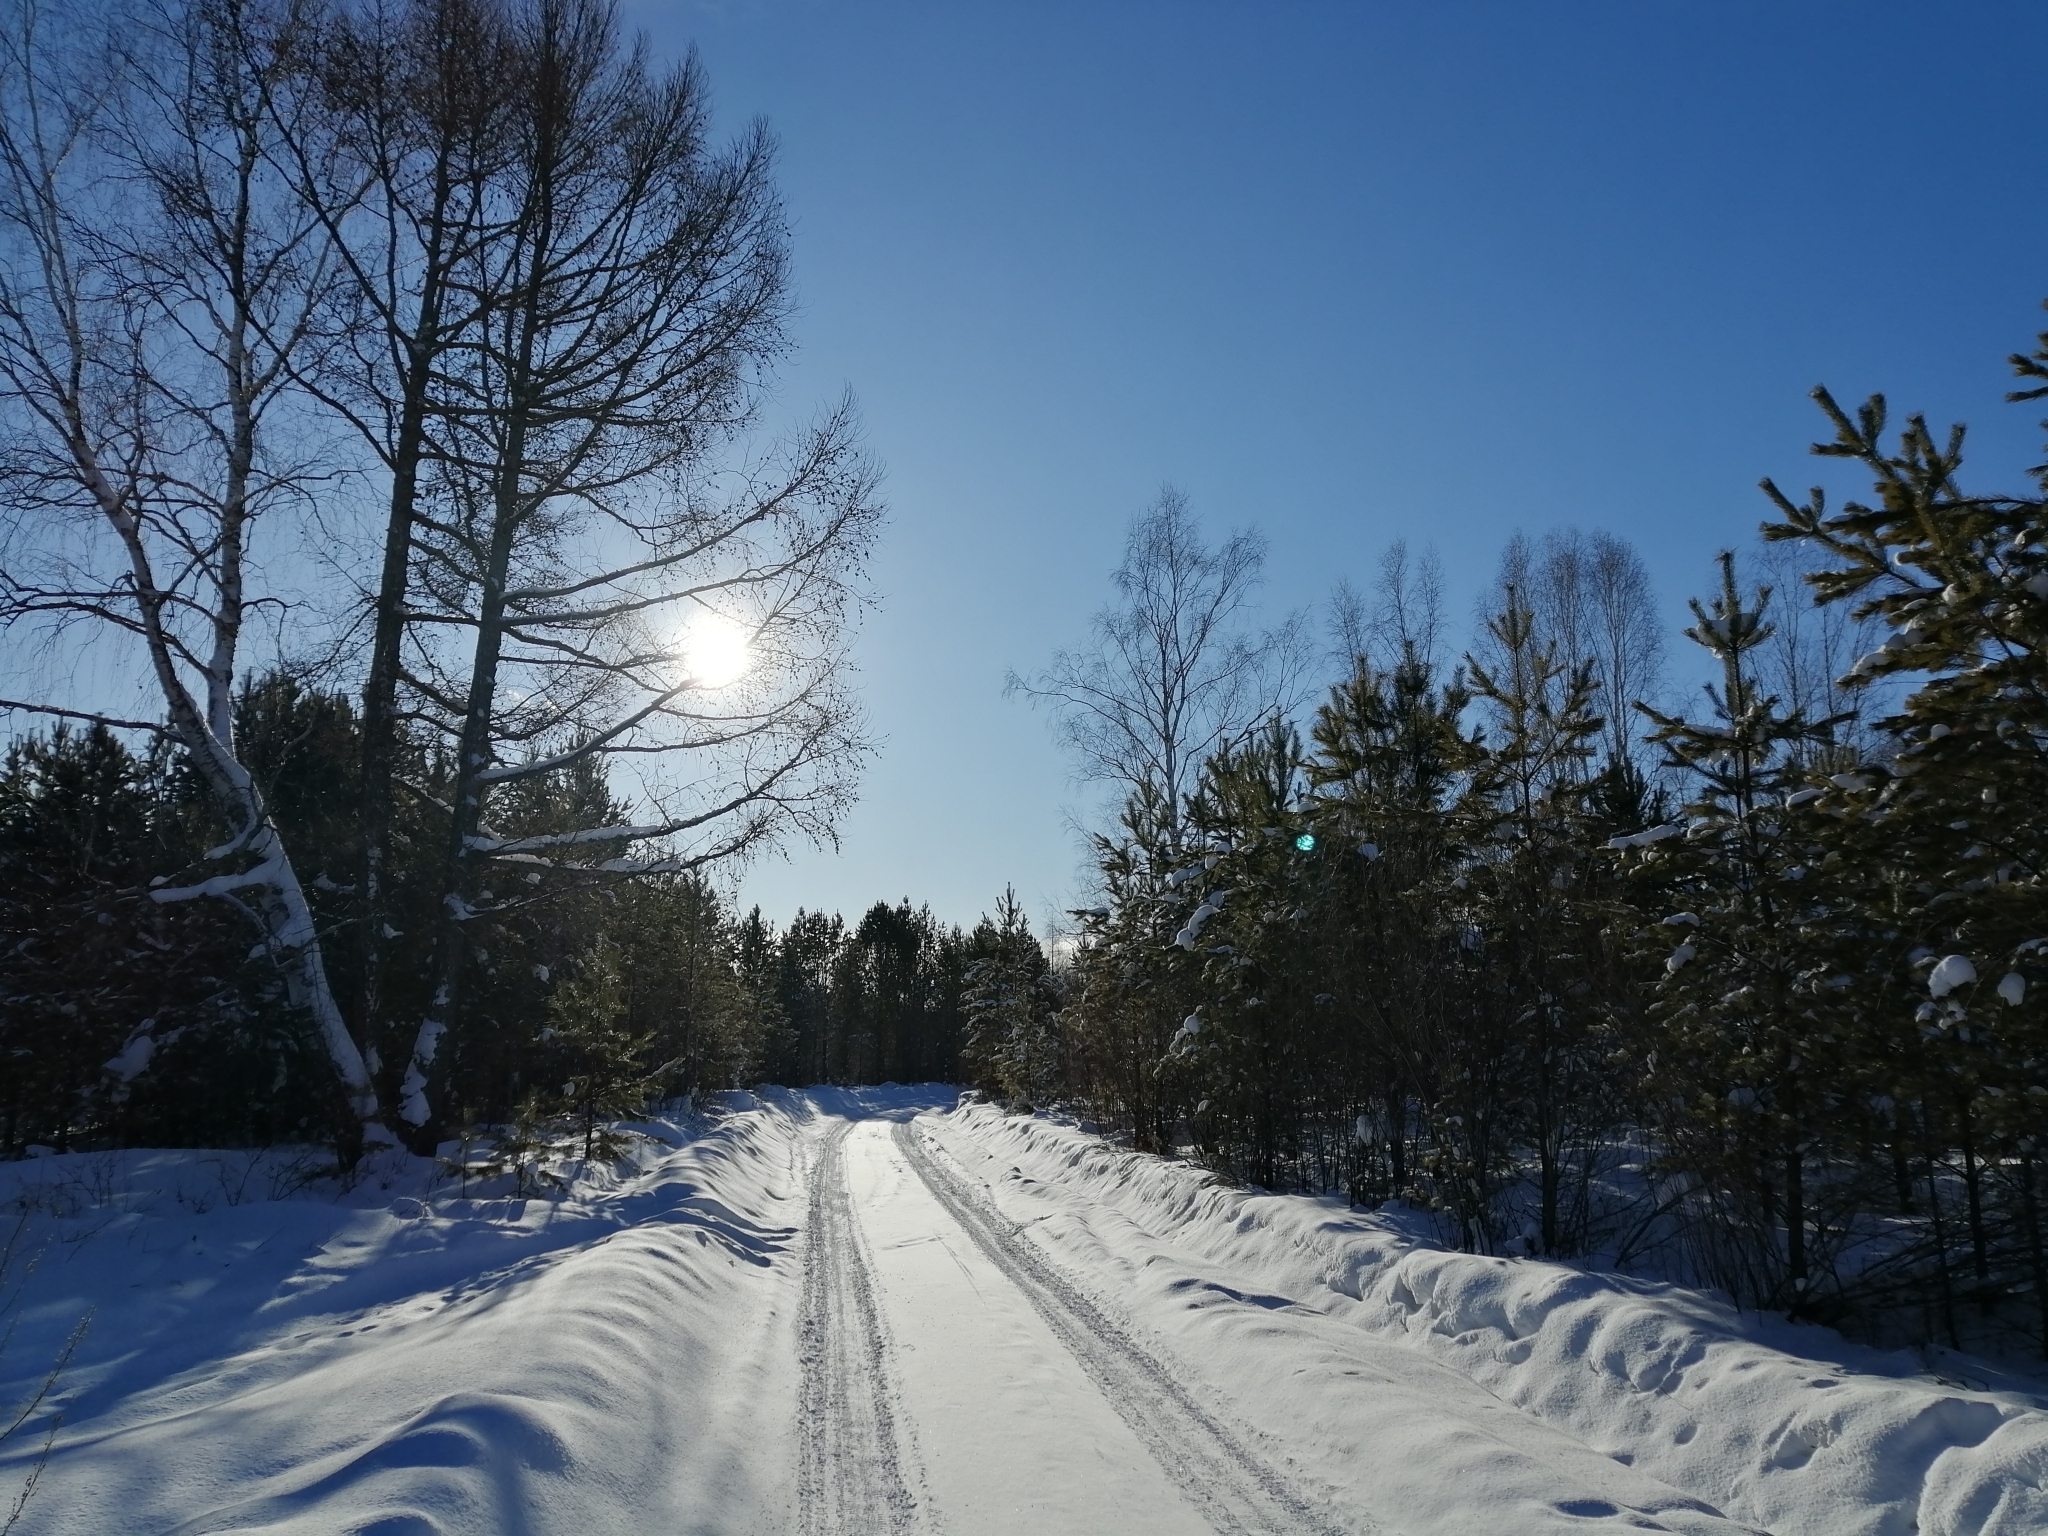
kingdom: Plantae
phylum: Tracheophyta
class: Pinopsida
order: Pinales
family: Pinaceae
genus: Larix
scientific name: Larix sibirica
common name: Siberian larch
